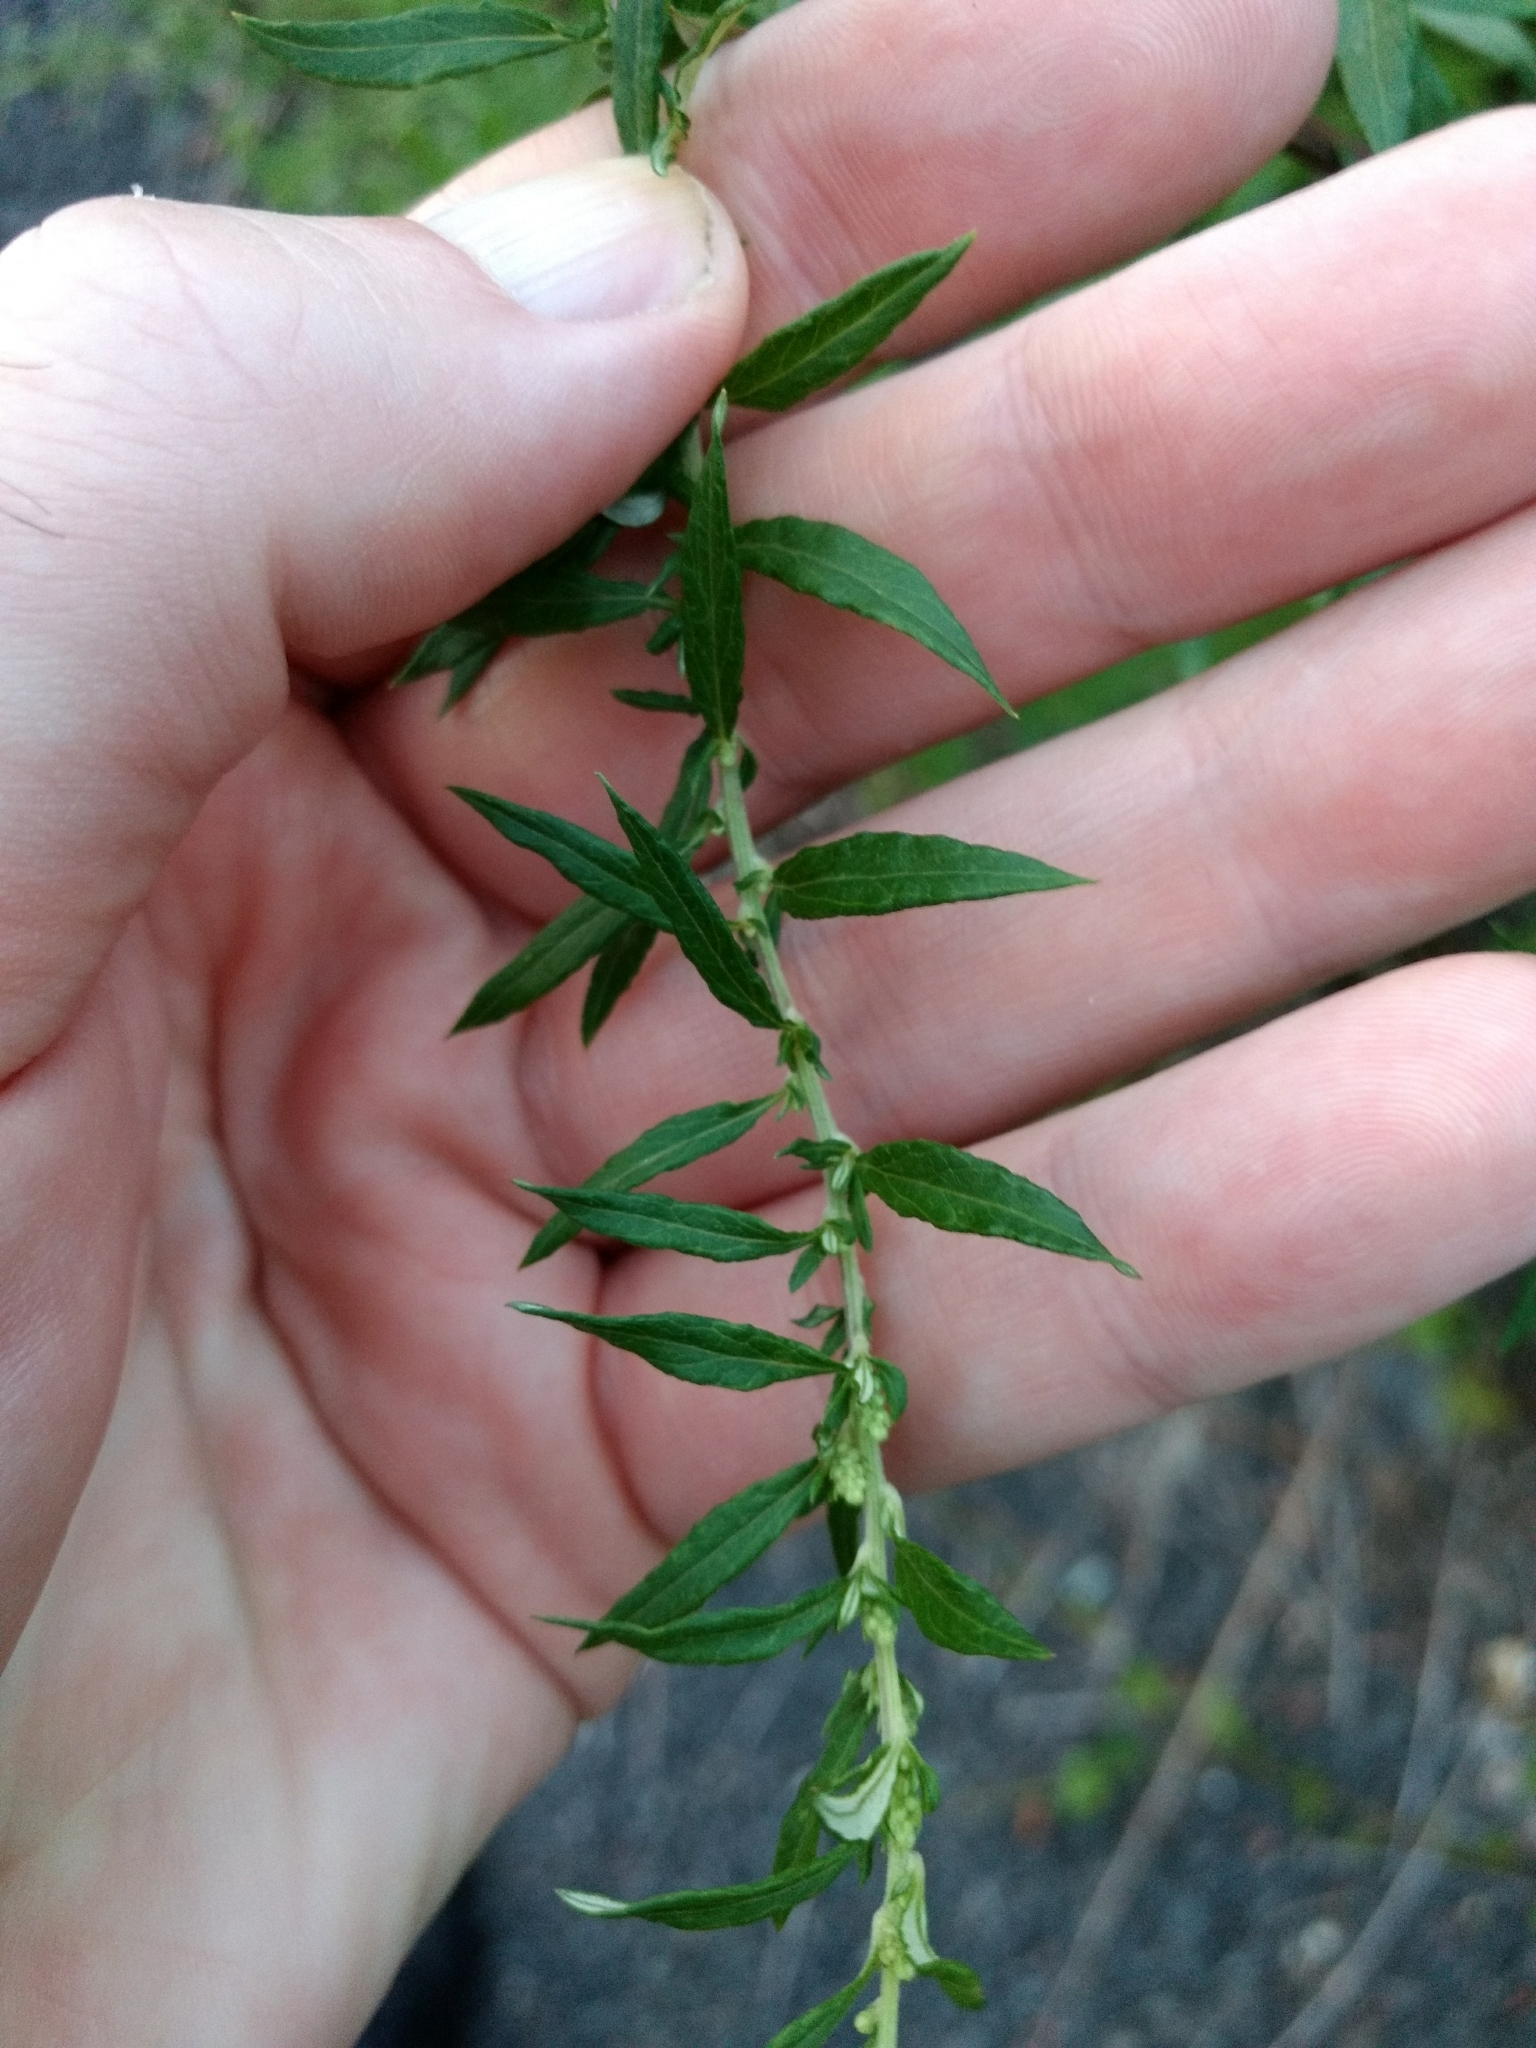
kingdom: Plantae
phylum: Tracheophyta
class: Magnoliopsida
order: Asterales
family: Asteraceae
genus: Artemisia
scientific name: Artemisia vulgaris
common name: Mugwort
